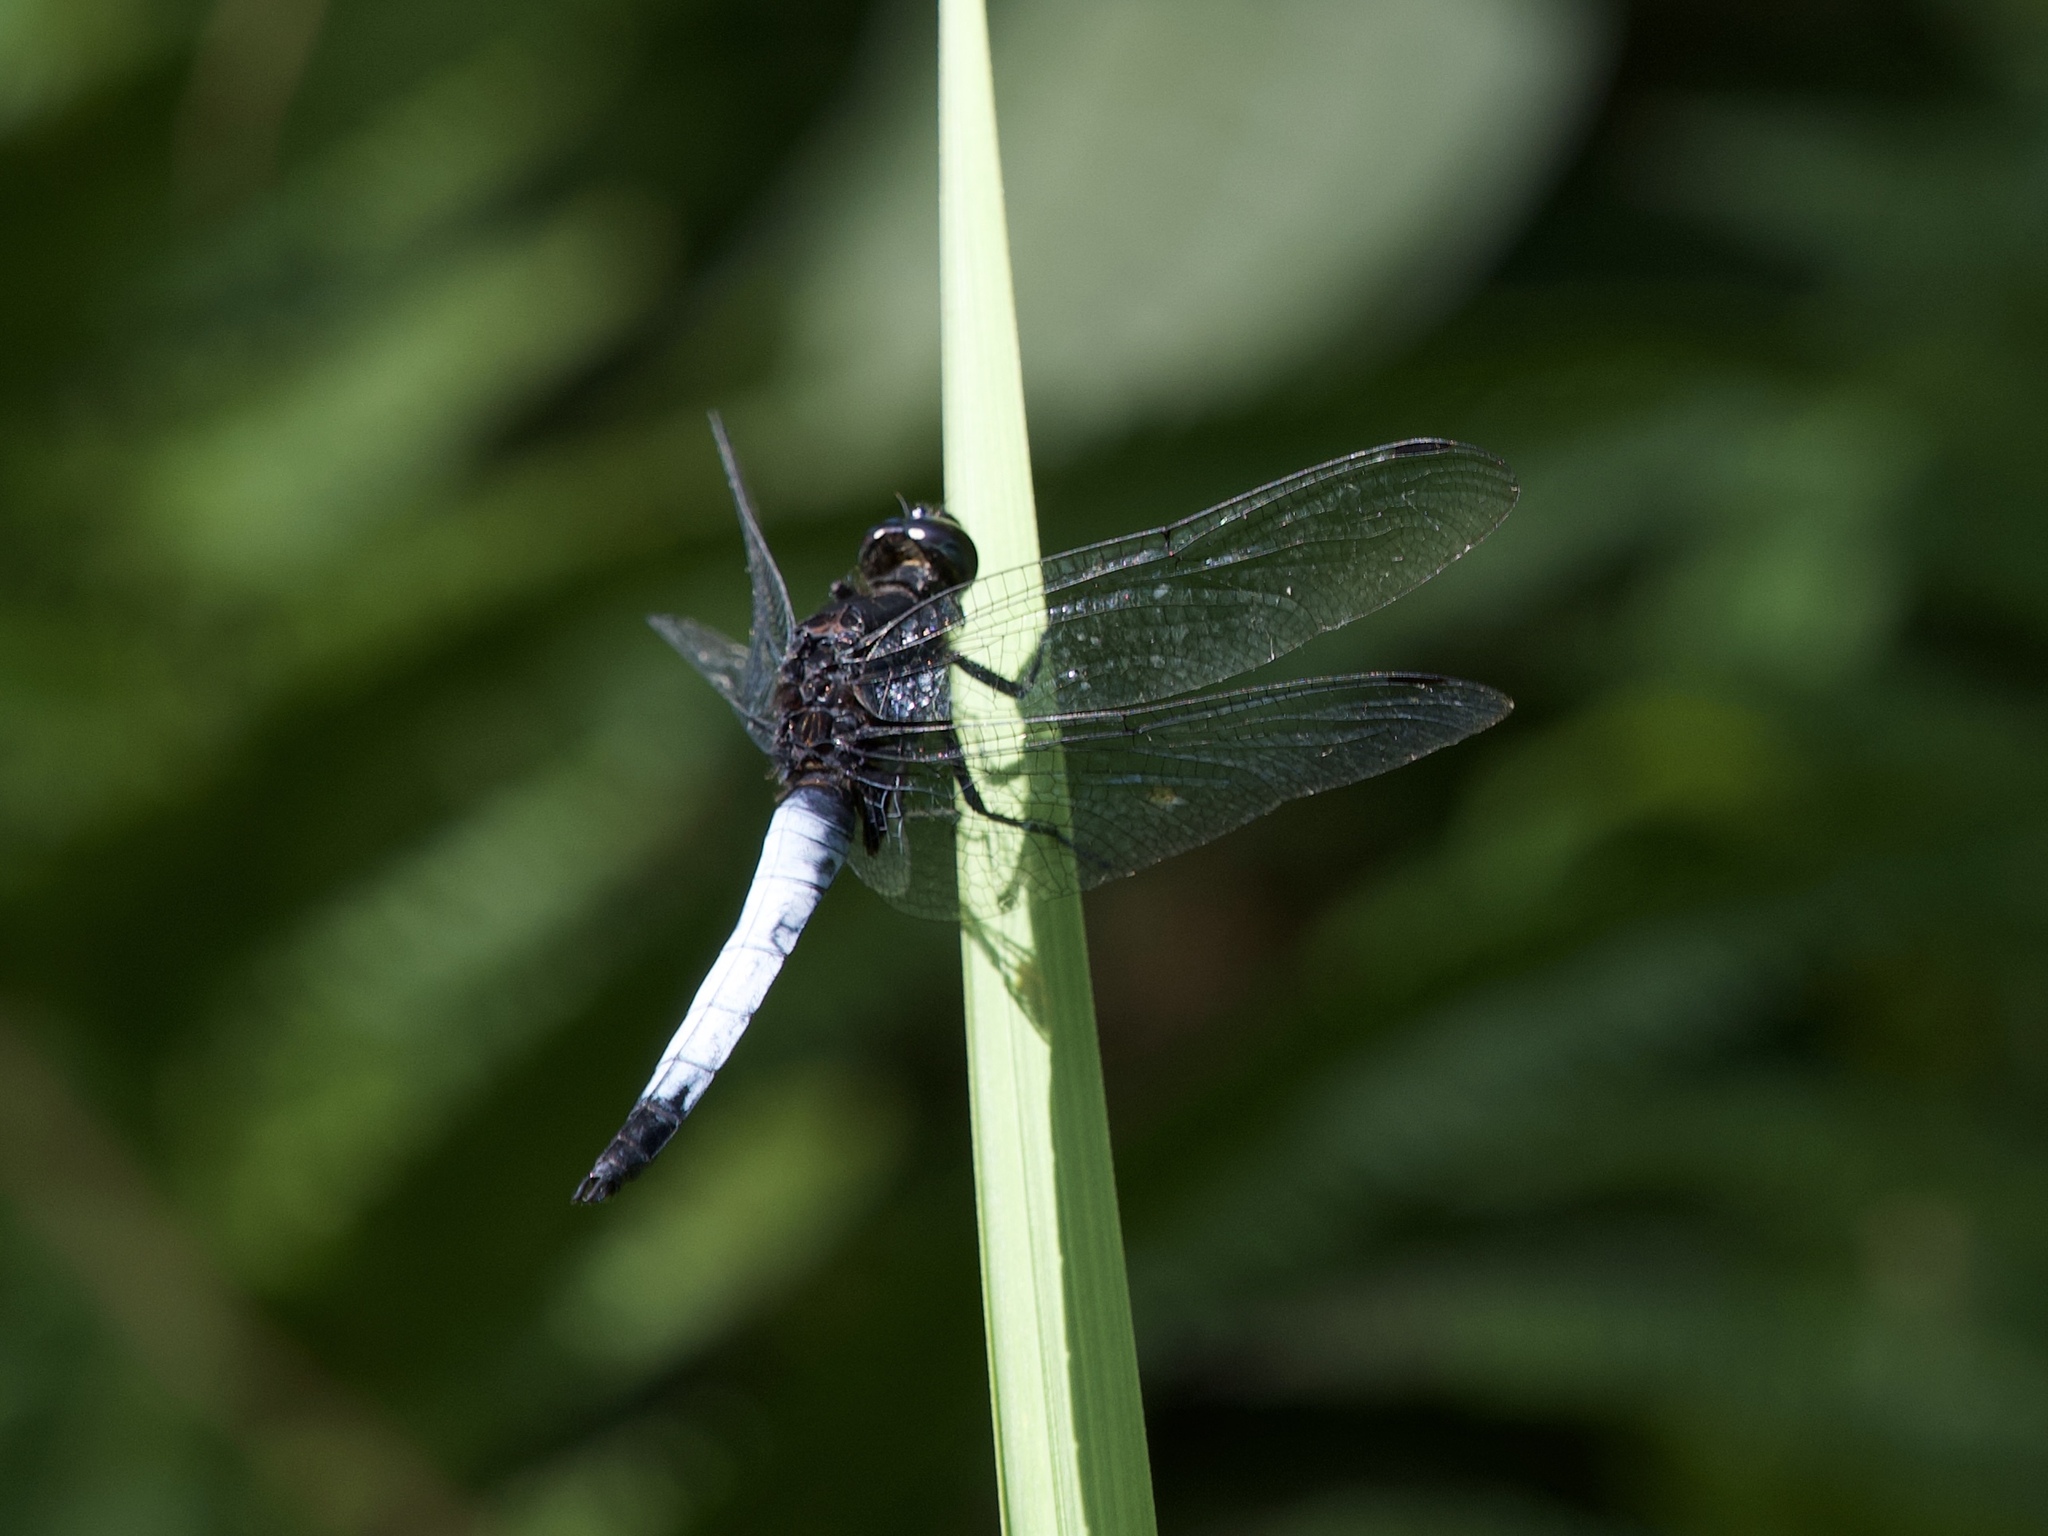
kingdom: Animalia
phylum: Arthropoda
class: Insecta
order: Odonata
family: Libellulidae
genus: Orthetrum
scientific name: Orthetrum triangulare
